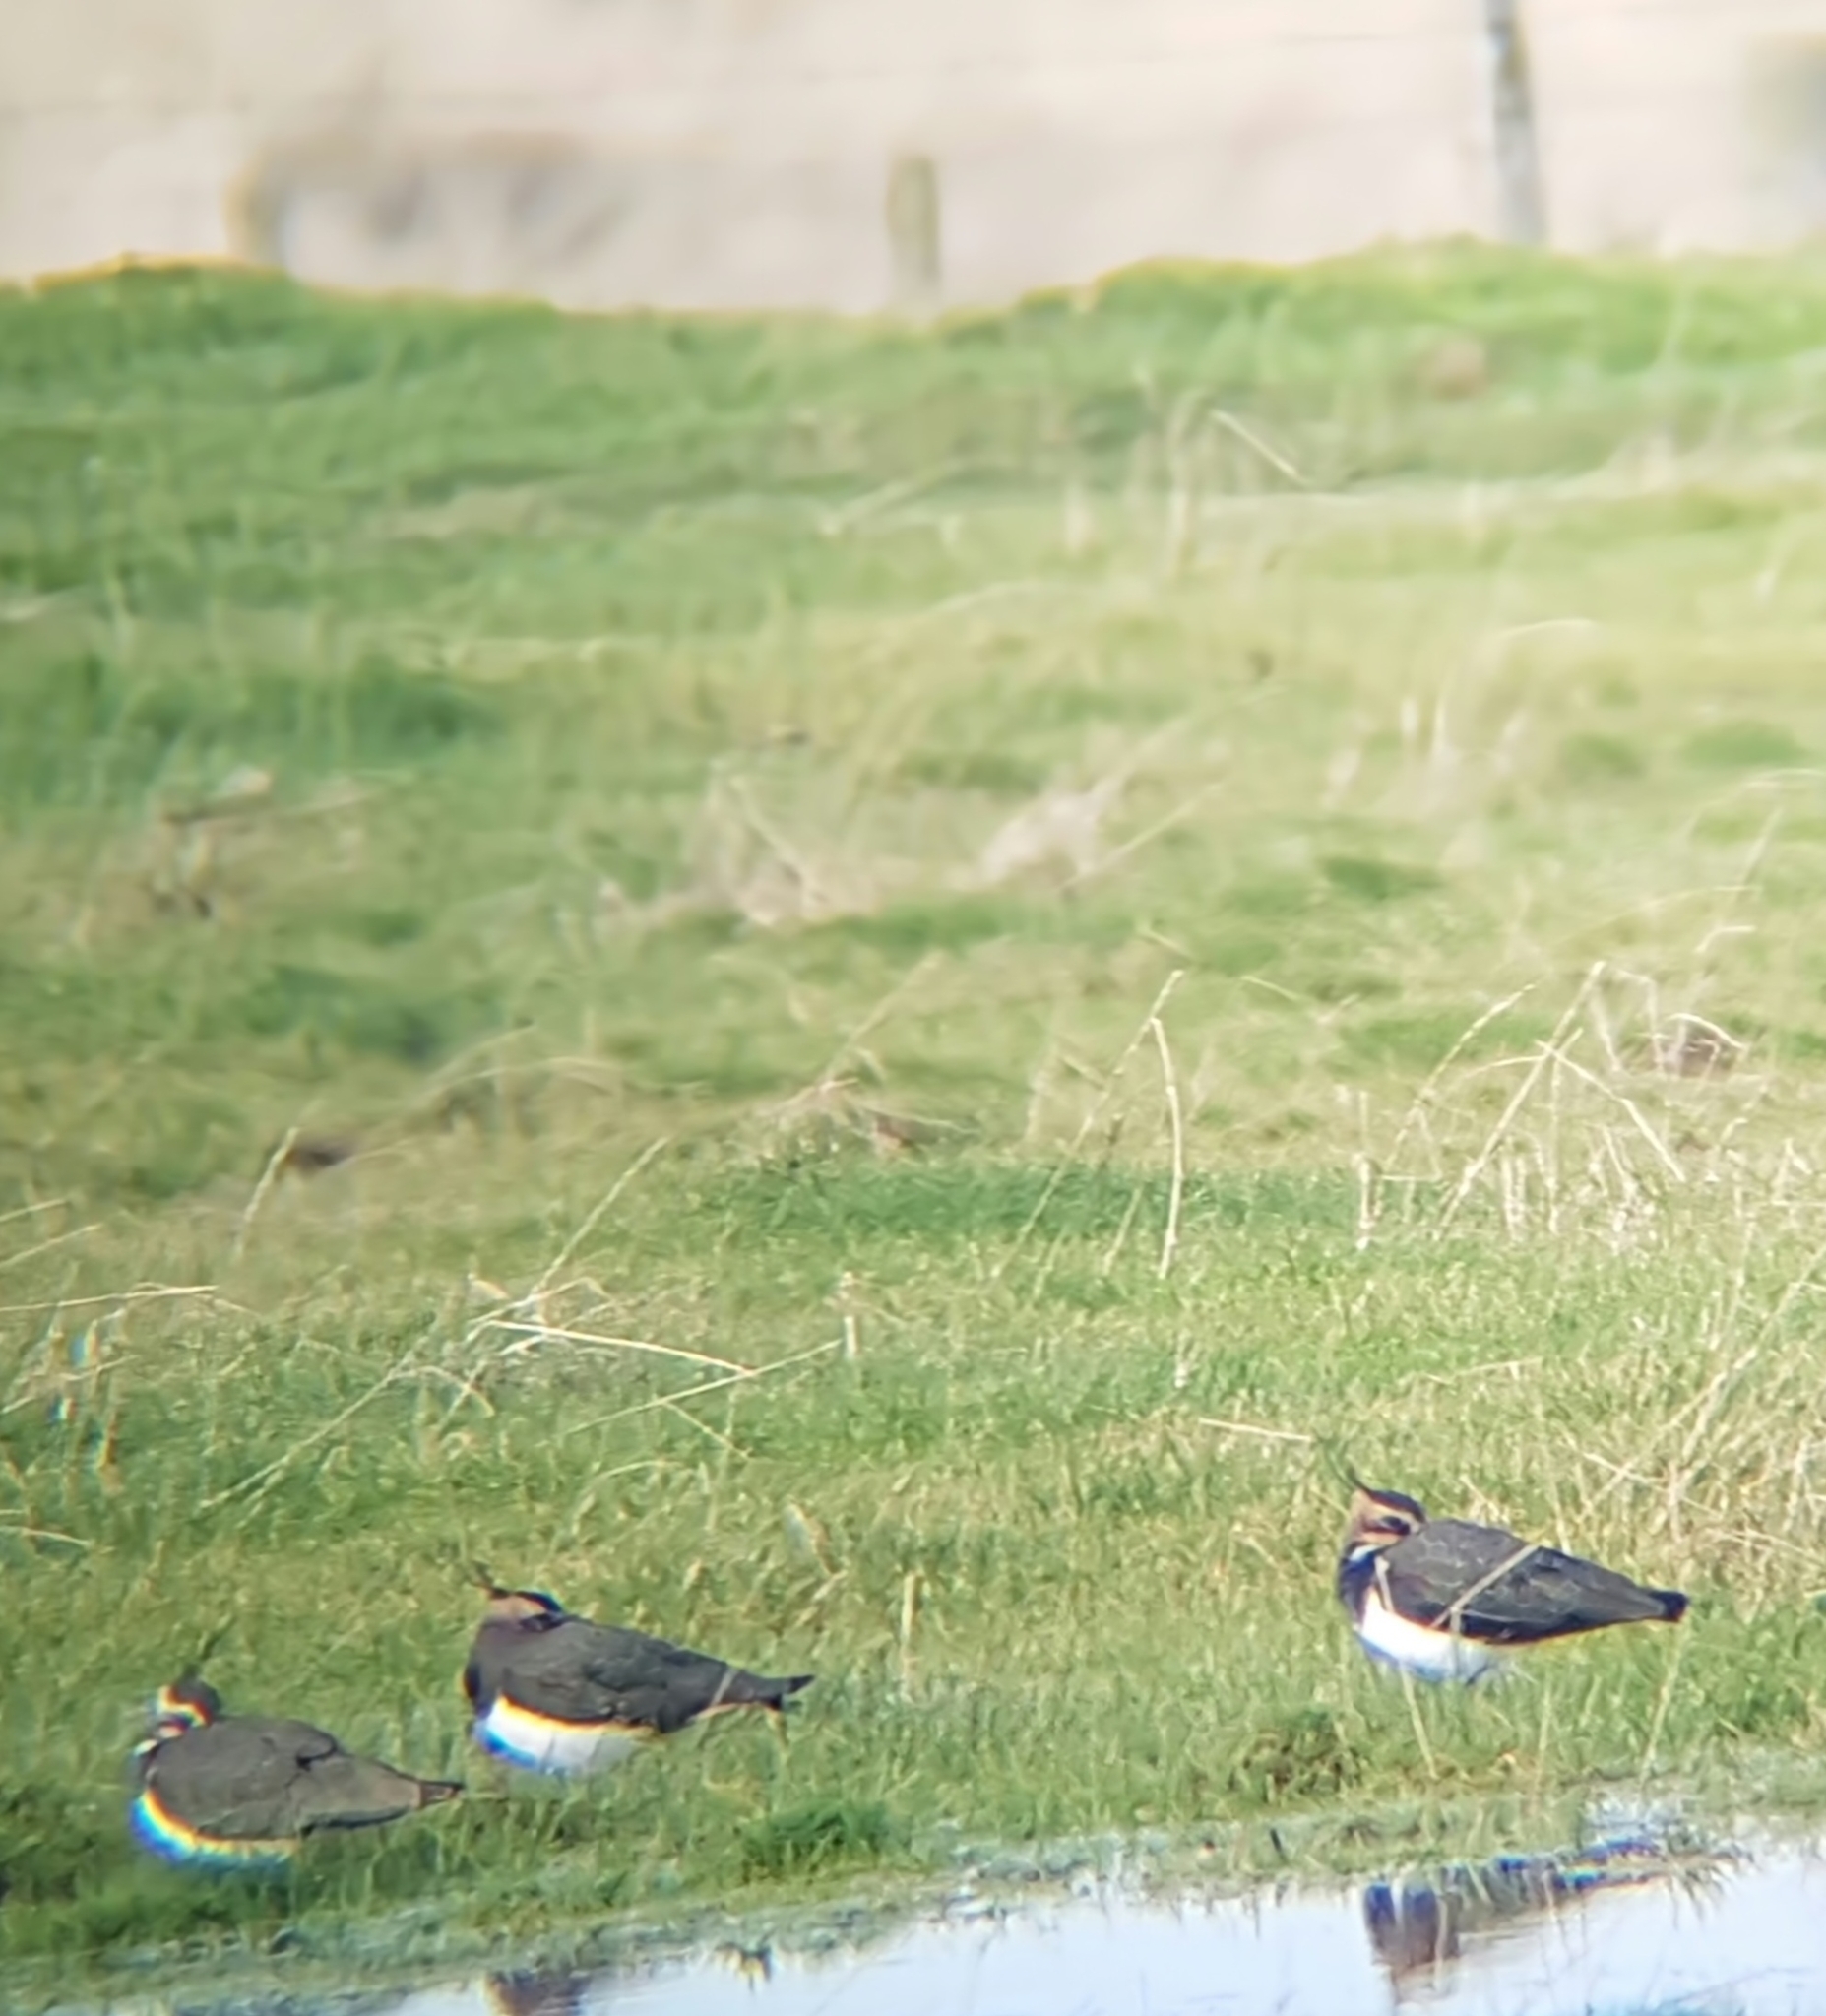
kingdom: Animalia
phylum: Chordata
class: Aves
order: Charadriiformes
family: Charadriidae
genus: Vanellus
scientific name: Vanellus vanellus
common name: Northern lapwing
